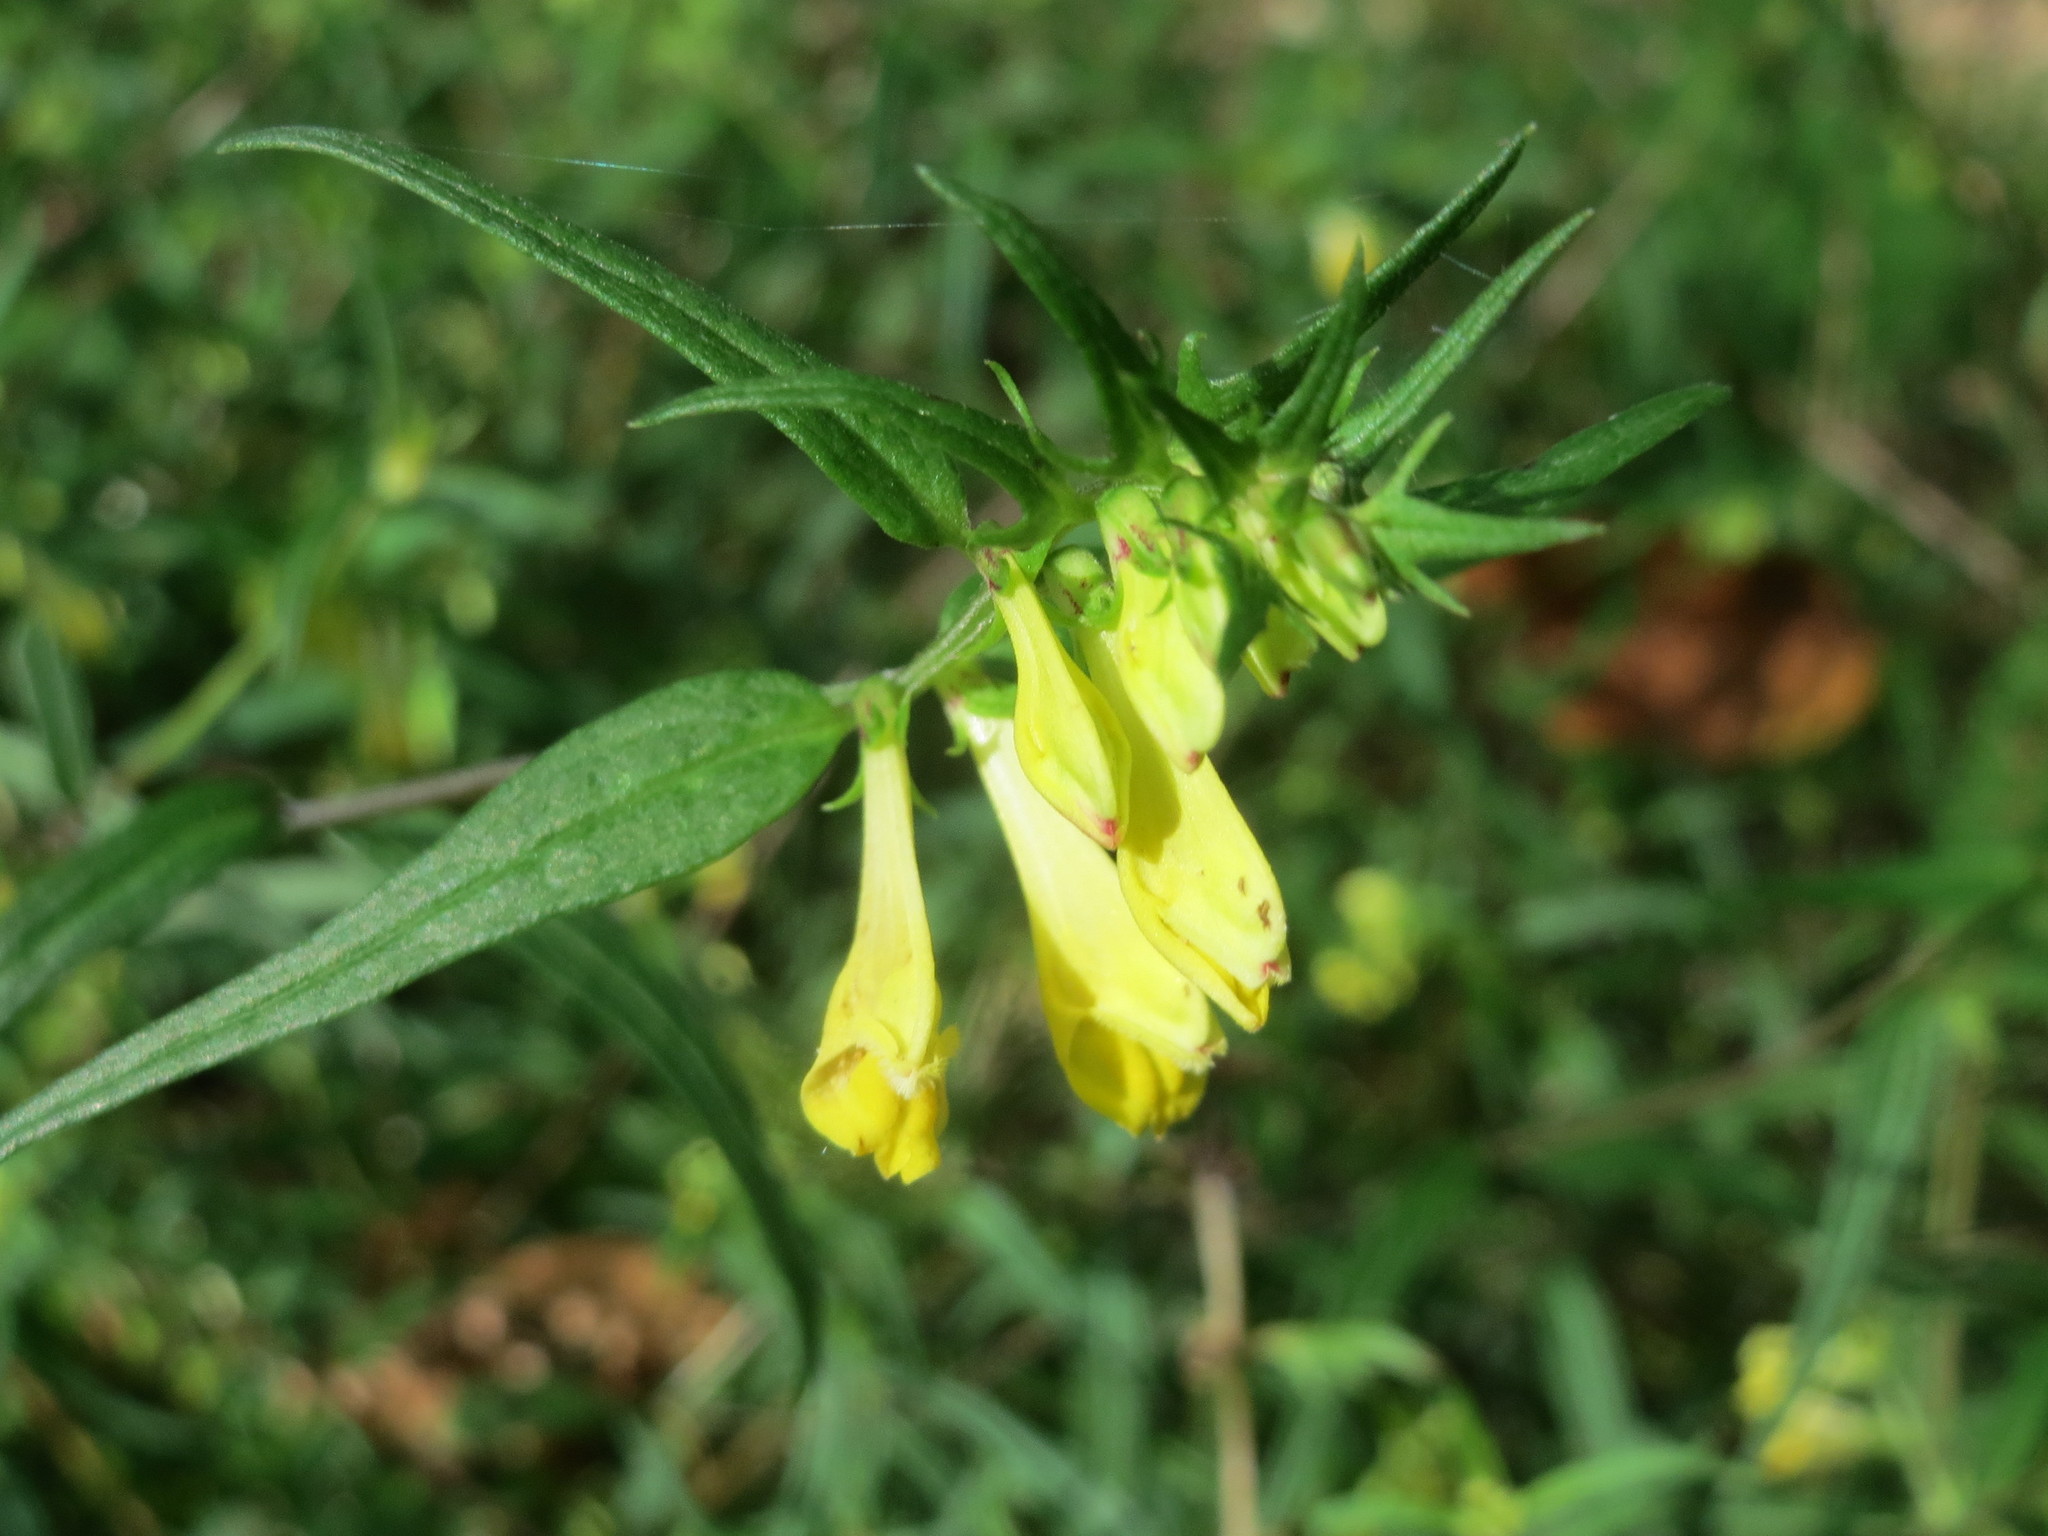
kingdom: Plantae
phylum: Tracheophyta
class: Magnoliopsida
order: Lamiales
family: Orobanchaceae
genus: Melampyrum
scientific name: Melampyrum pratense
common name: Common cow-wheat
